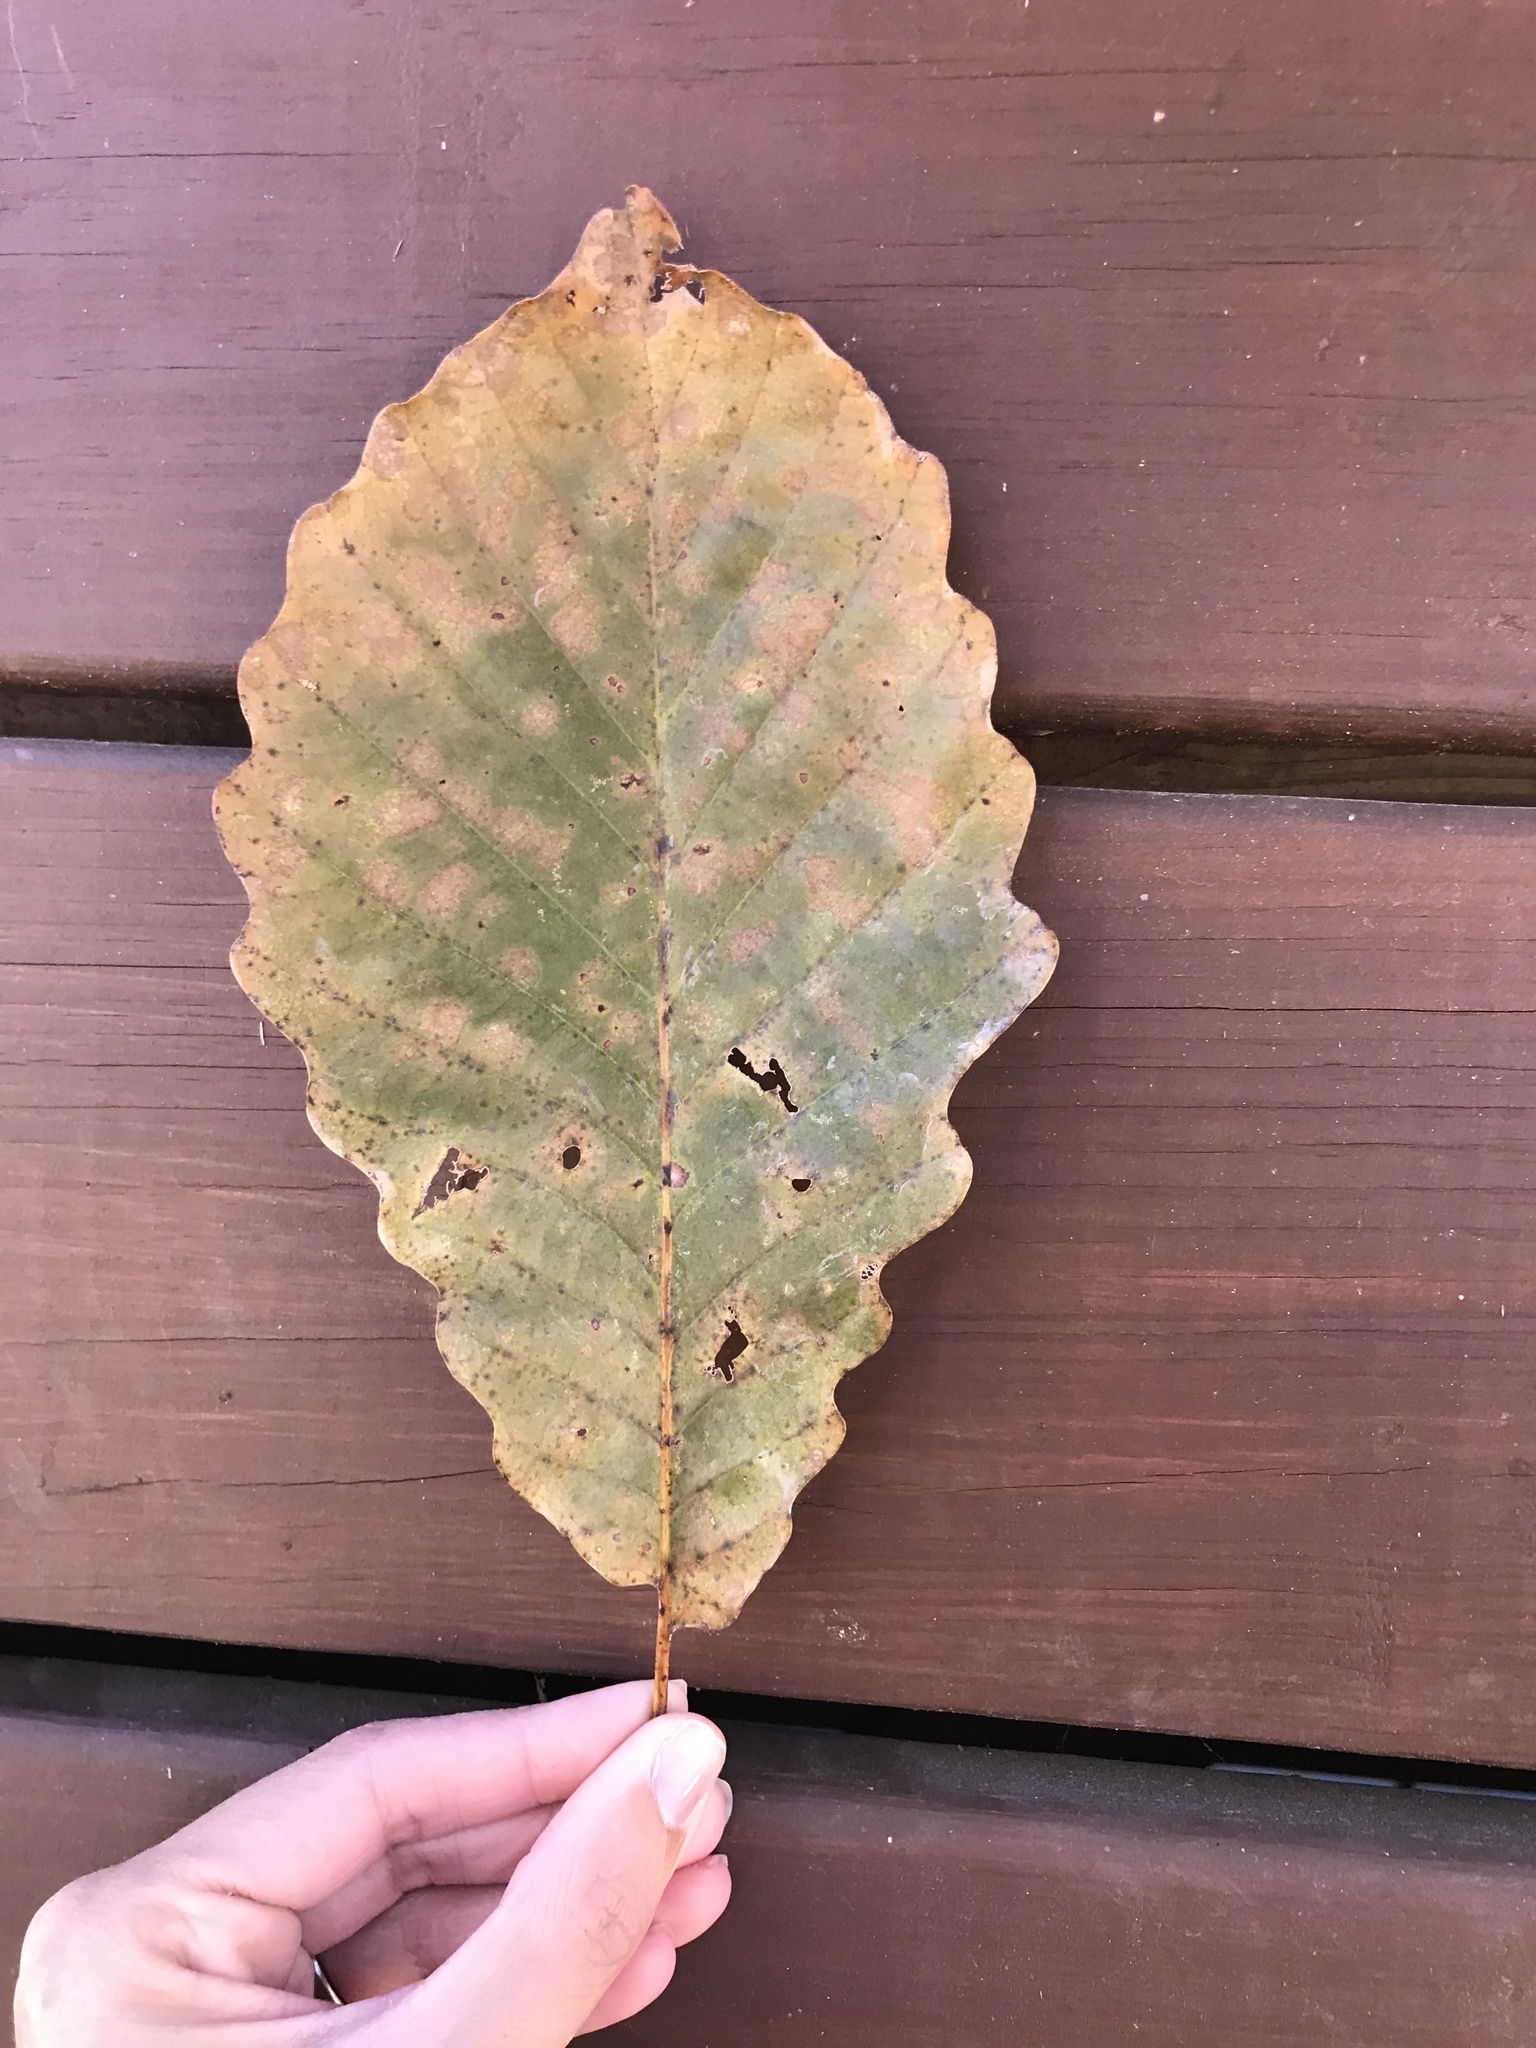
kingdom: Plantae
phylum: Tracheophyta
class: Magnoliopsida
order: Fagales
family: Fagaceae
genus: Quercus
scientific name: Quercus montana
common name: Chestnut oak
